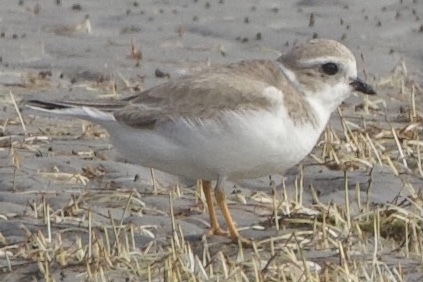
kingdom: Animalia
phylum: Chordata
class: Aves
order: Charadriiformes
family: Charadriidae
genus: Charadrius
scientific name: Charadrius melodus
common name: Piping plover
